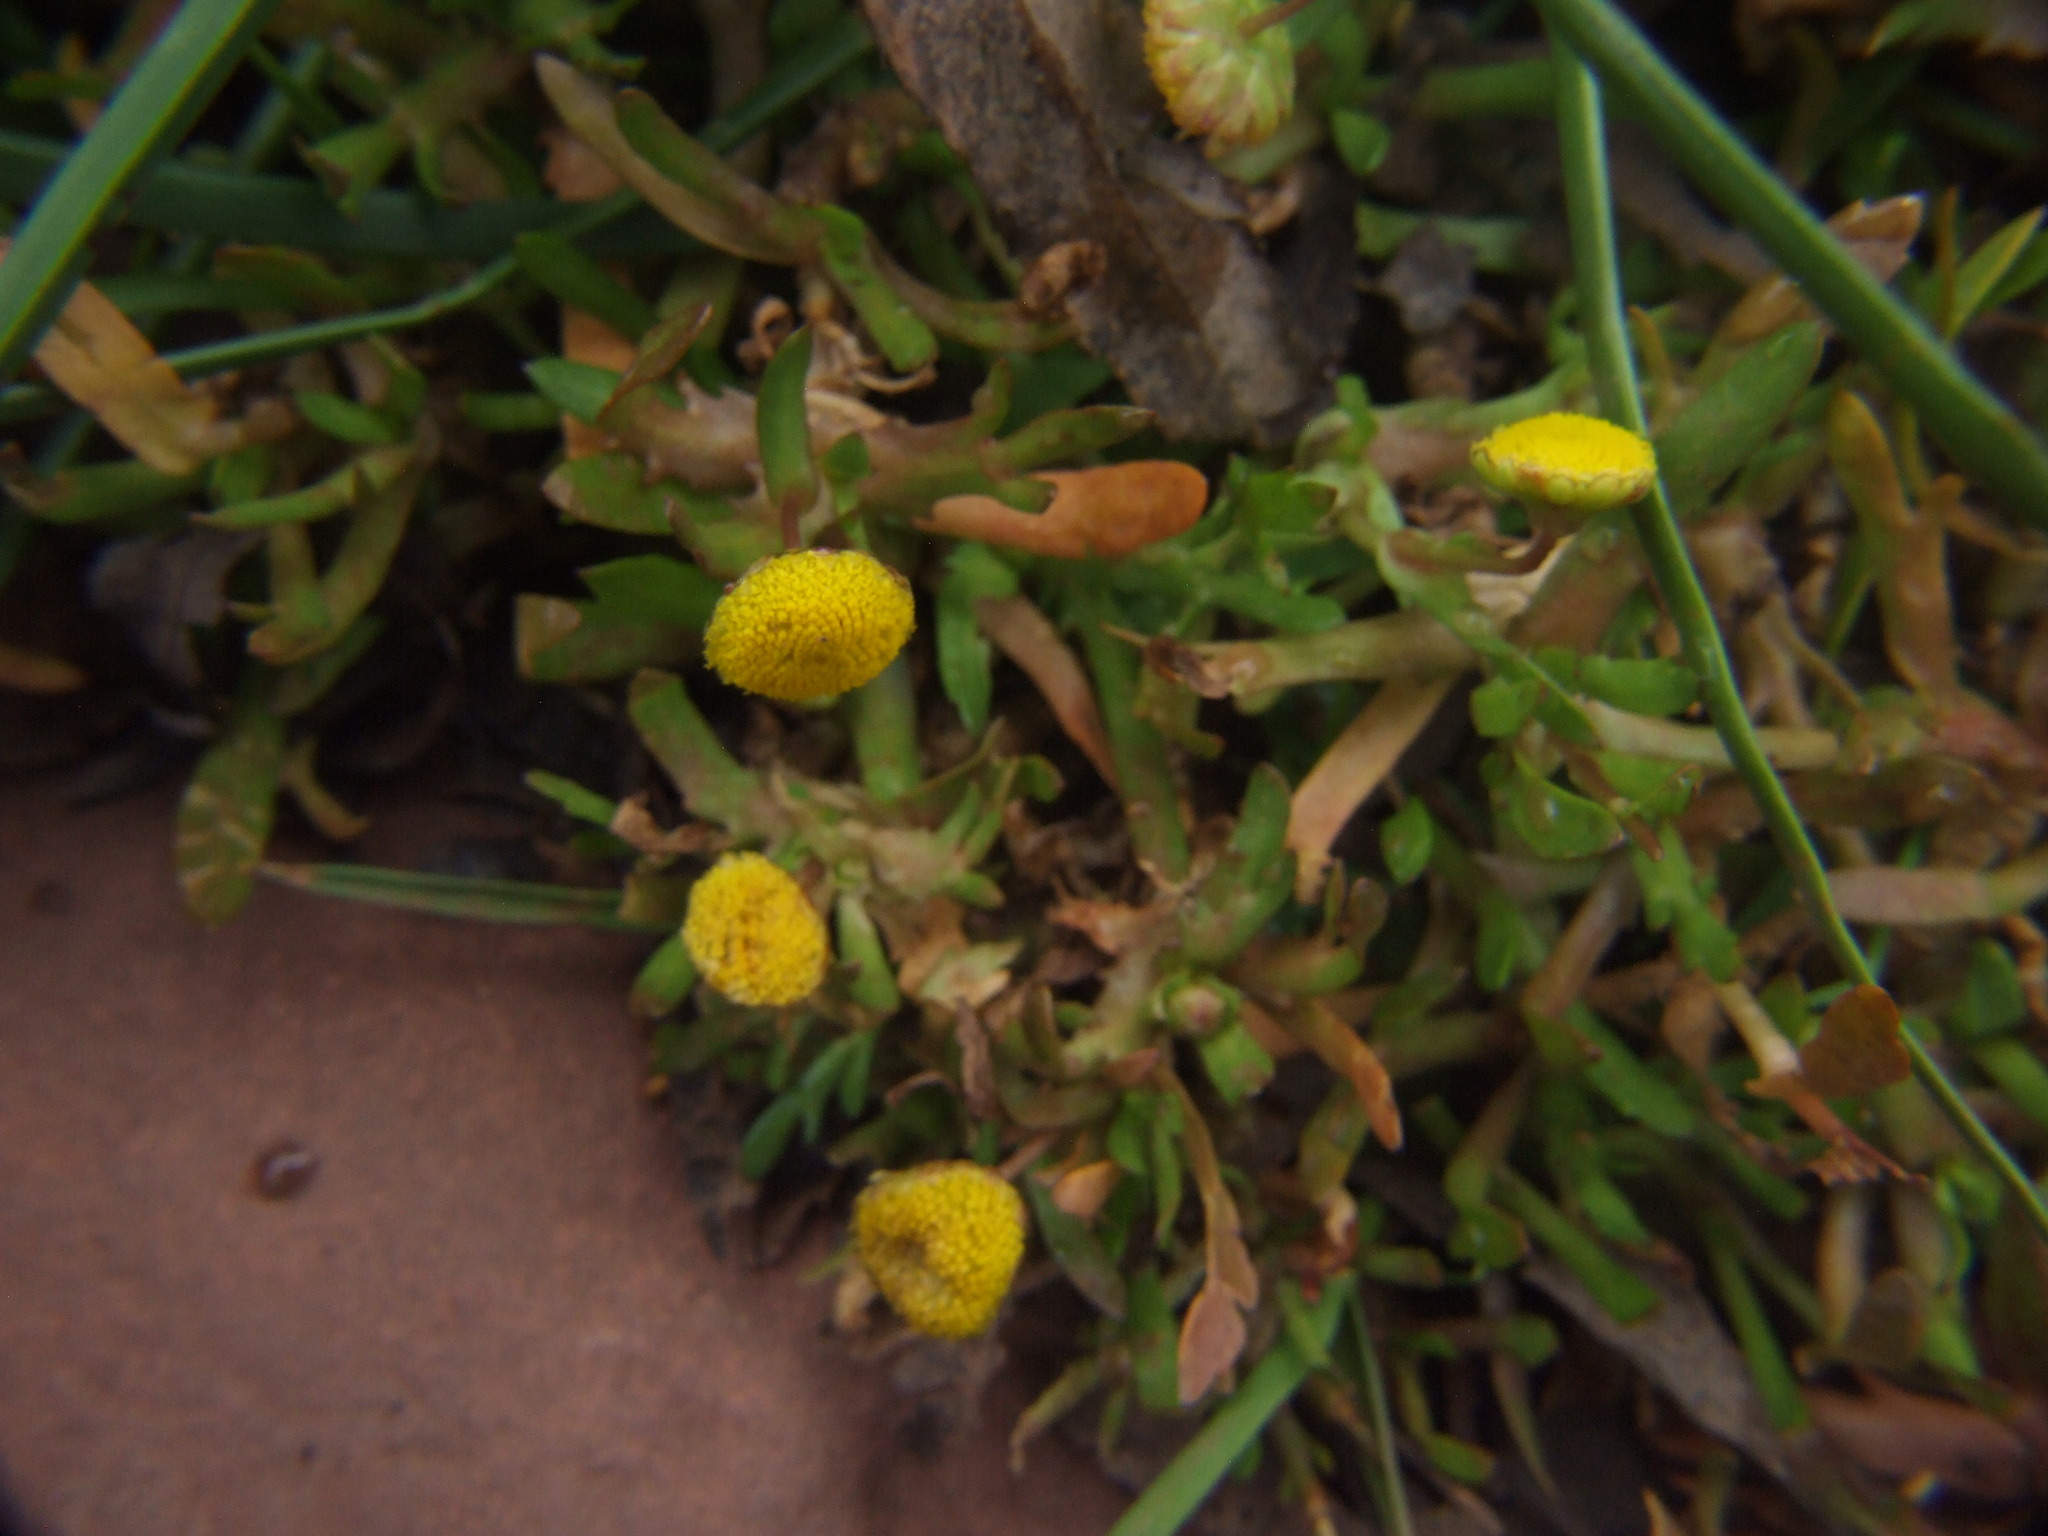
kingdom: Plantae
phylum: Tracheophyta
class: Magnoliopsida
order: Asterales
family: Asteraceae
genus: Cotula
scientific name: Cotula coronopifolia
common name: Buttonweed
